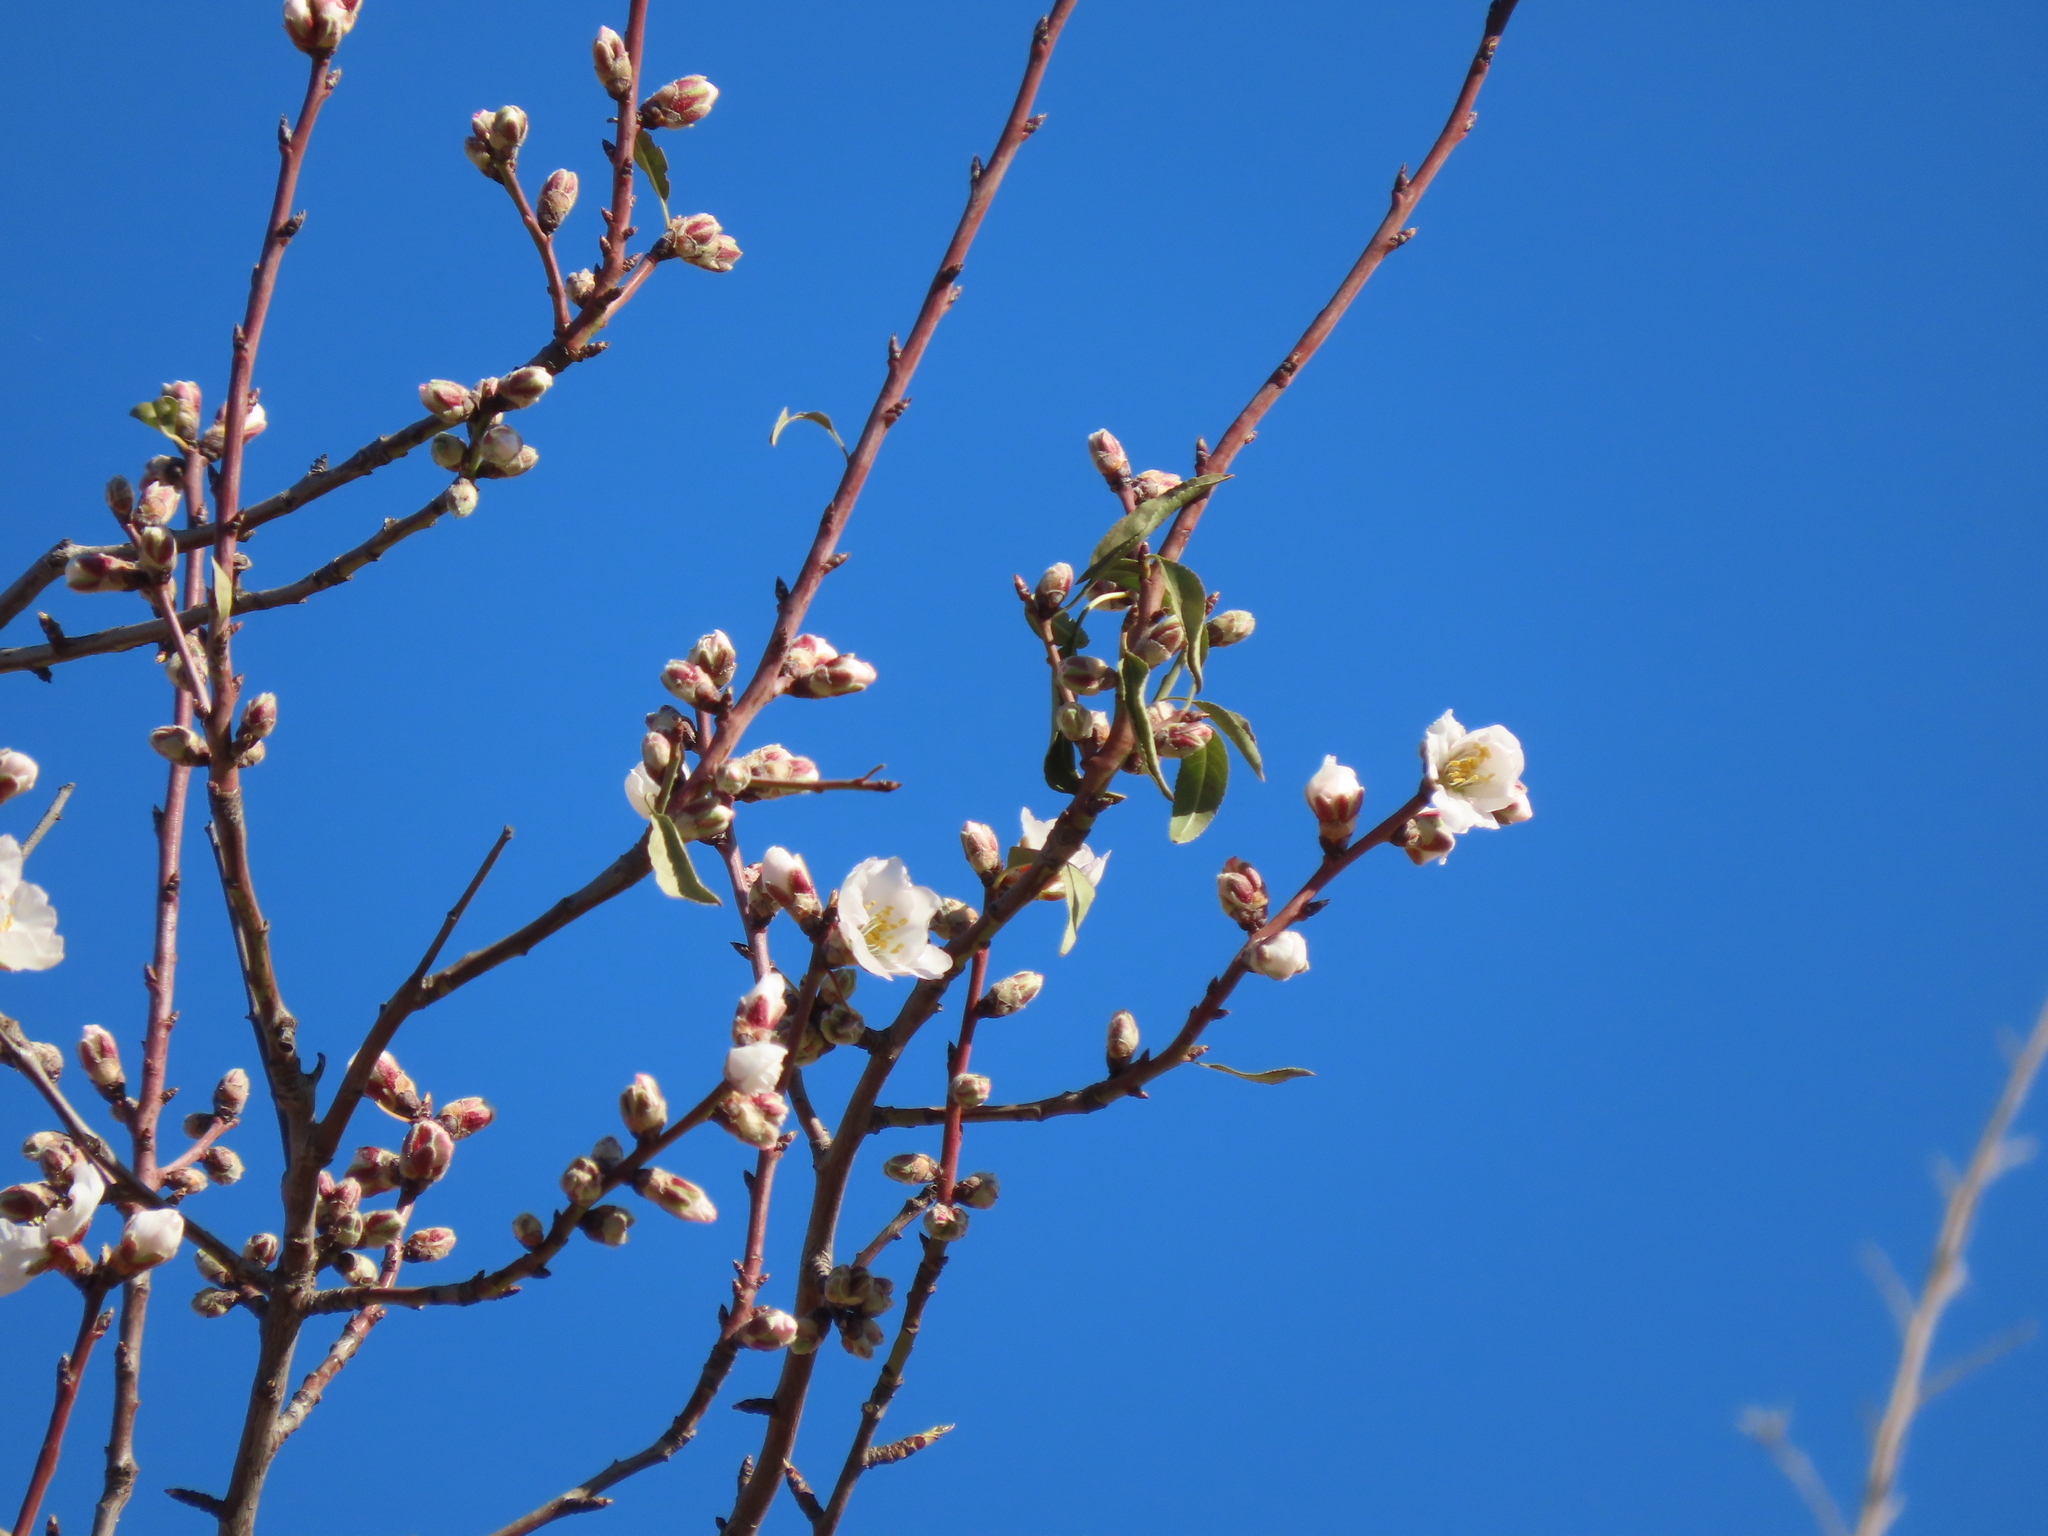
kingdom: Plantae
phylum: Tracheophyta
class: Magnoliopsida
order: Rosales
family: Rosaceae
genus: Prunus
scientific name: Prunus amygdalus
